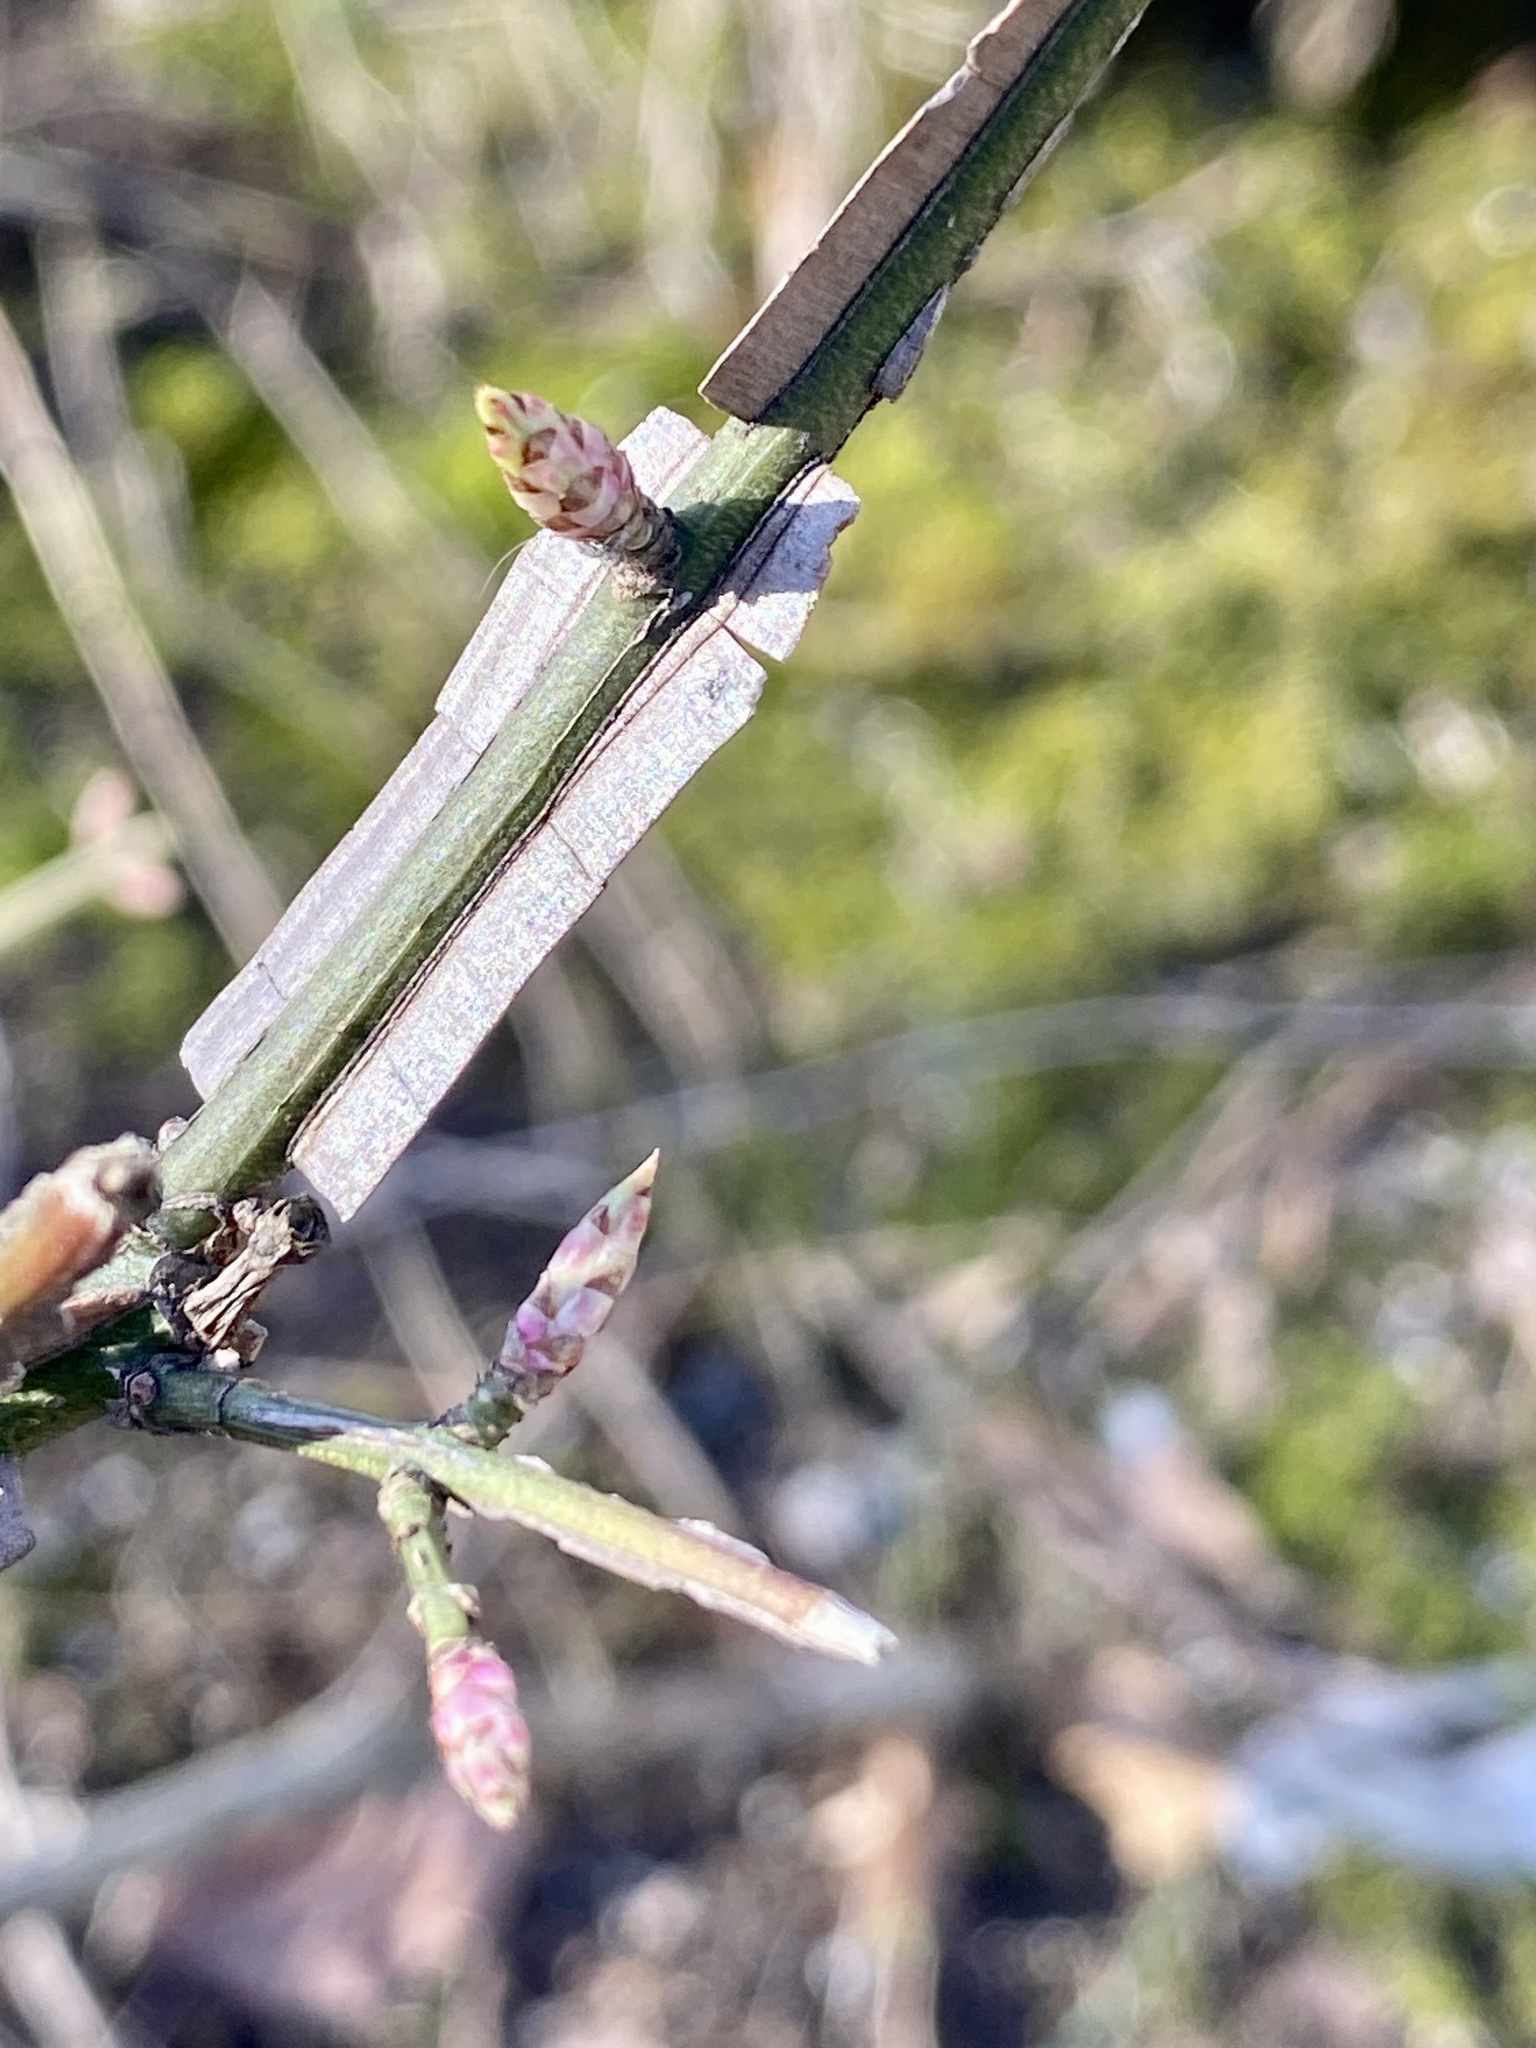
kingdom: Plantae
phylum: Tracheophyta
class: Magnoliopsida
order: Celastrales
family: Celastraceae
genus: Euonymus
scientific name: Euonymus alatus
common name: Winged euonymus
